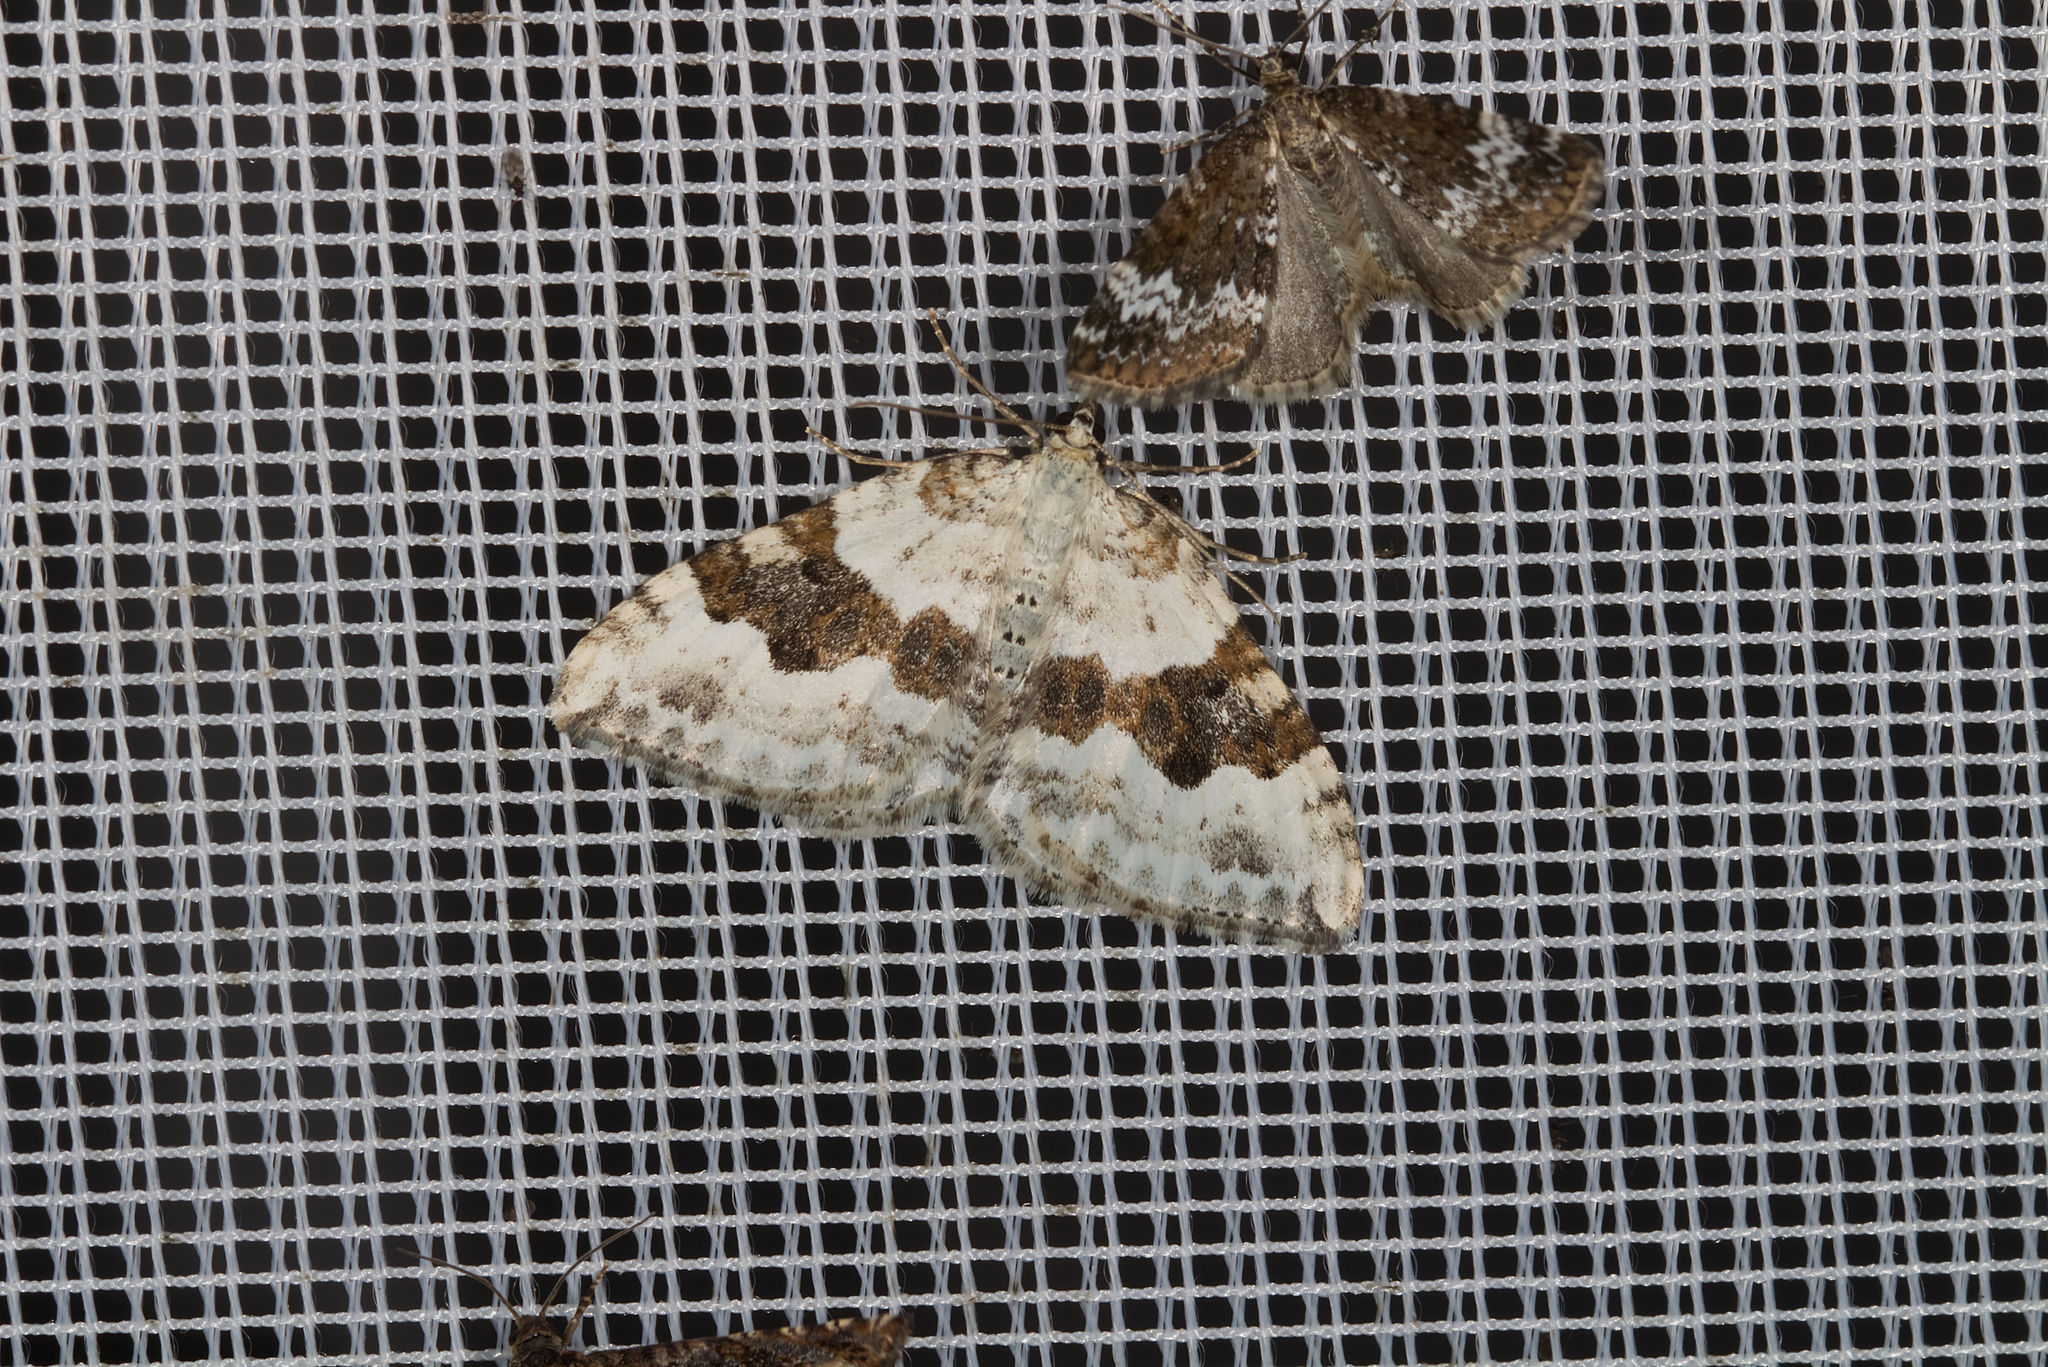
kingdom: Animalia
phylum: Arthropoda
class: Insecta
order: Lepidoptera
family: Geometridae
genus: Xanthorhoe
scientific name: Xanthorhoe montanata
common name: Silver-ground carpet
